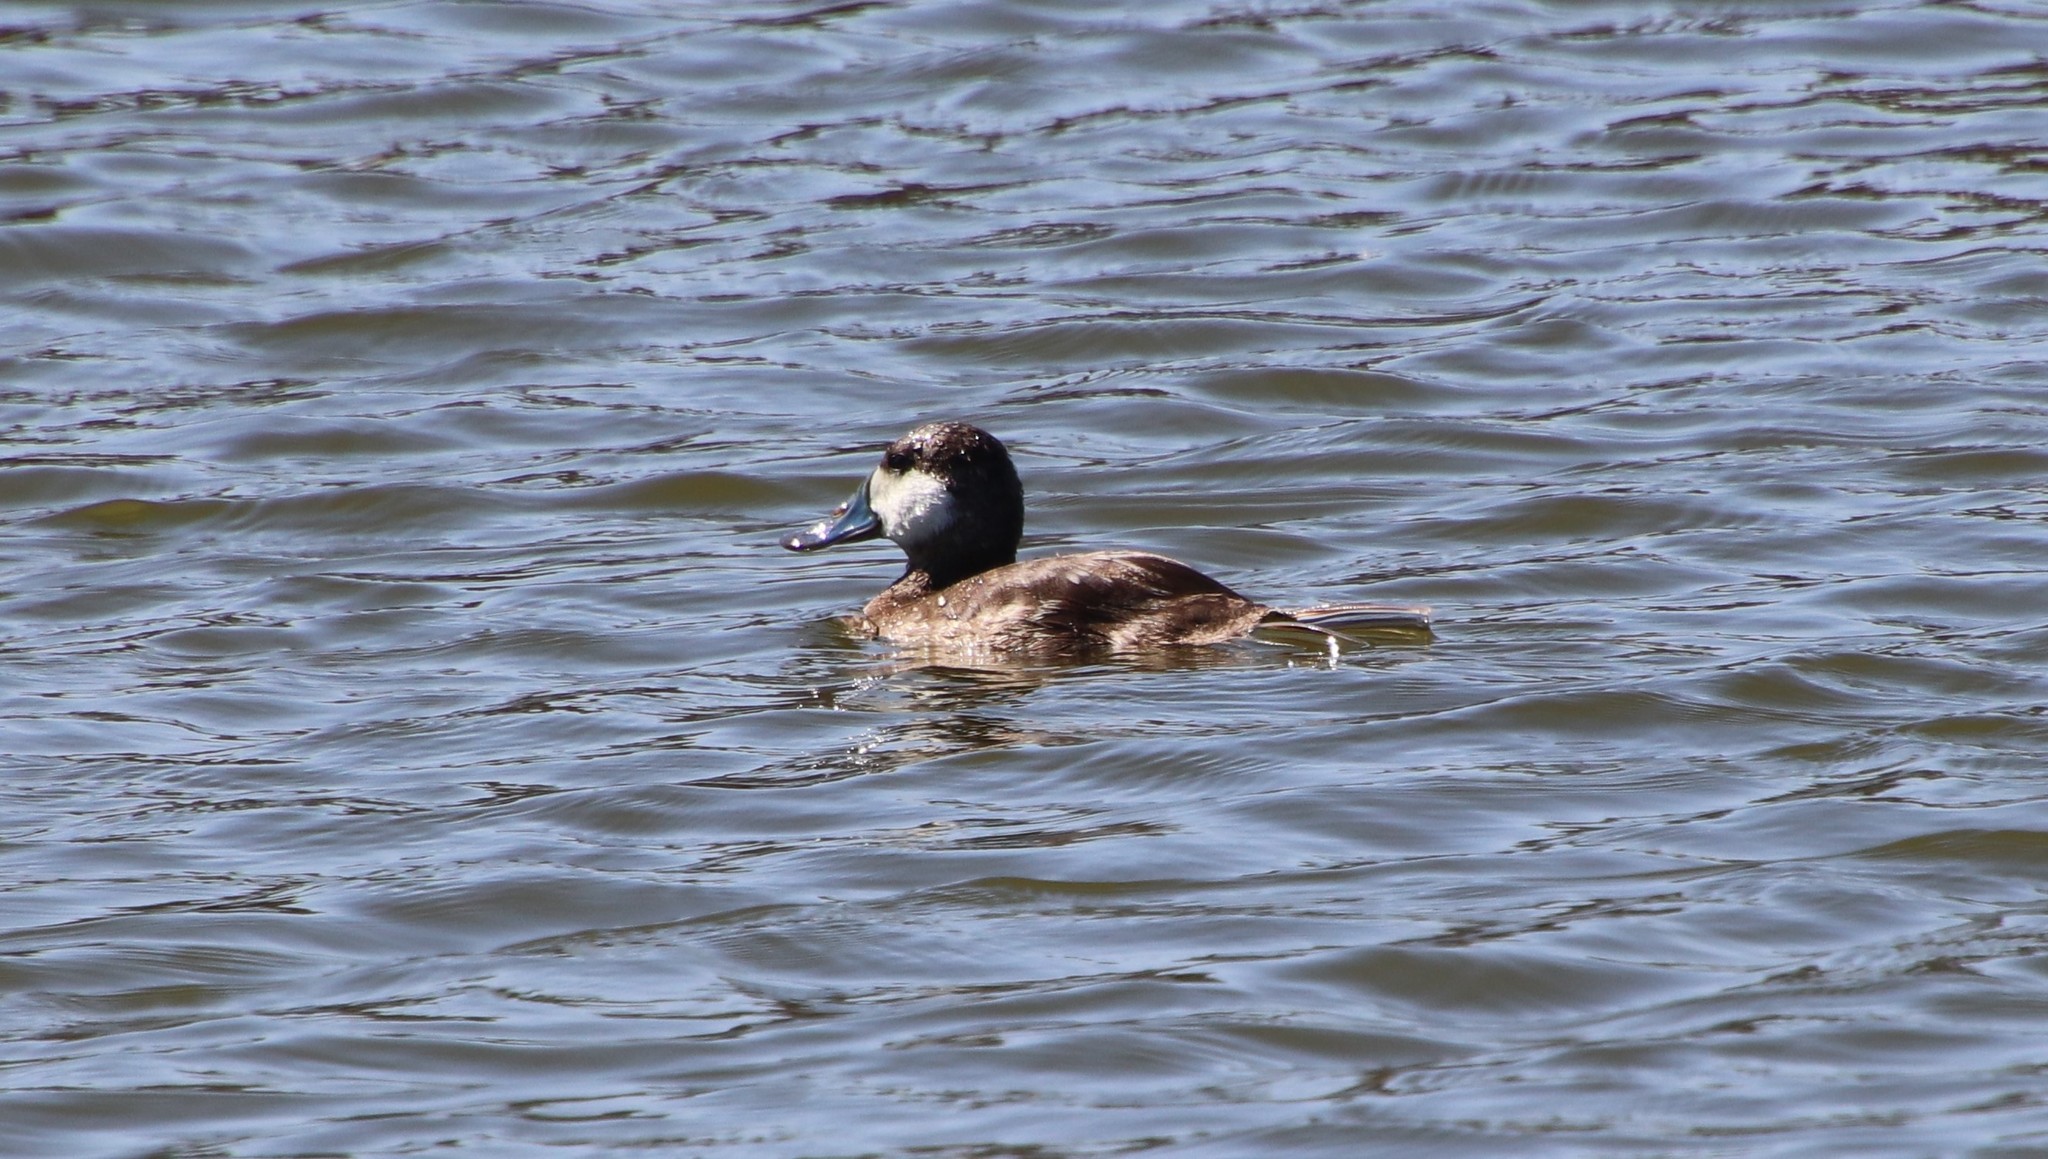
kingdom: Animalia
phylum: Chordata
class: Aves
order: Anseriformes
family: Anatidae
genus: Oxyura
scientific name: Oxyura jamaicensis
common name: Ruddy duck
